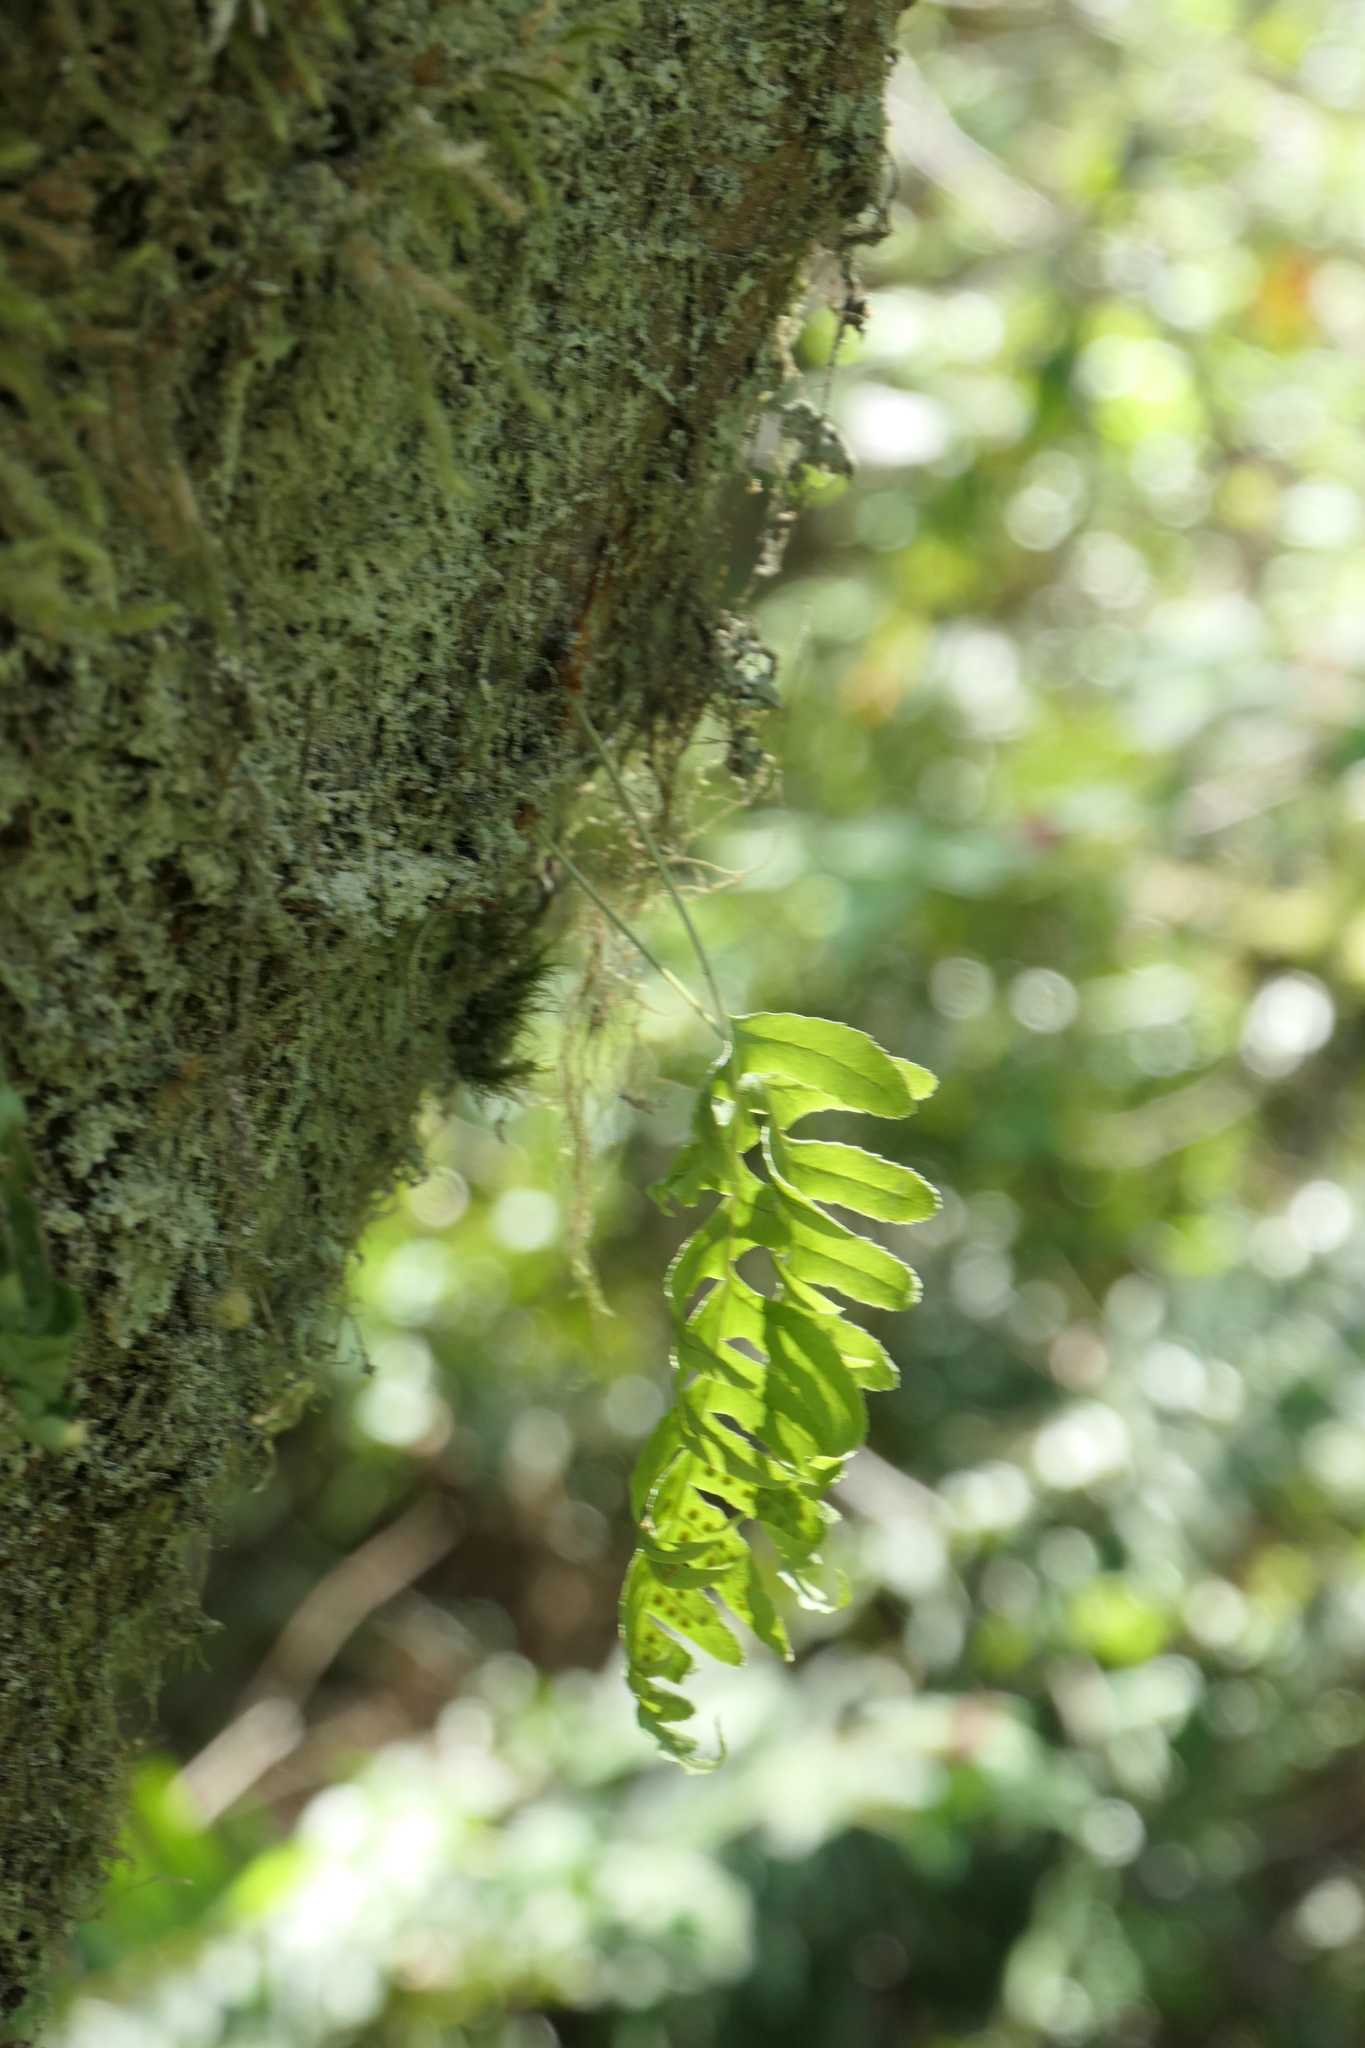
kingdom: Plantae
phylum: Tracheophyta
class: Polypodiopsida
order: Polypodiales
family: Polypodiaceae
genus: Polypodium
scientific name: Polypodium glycyrrhiza
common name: Licorice fern
